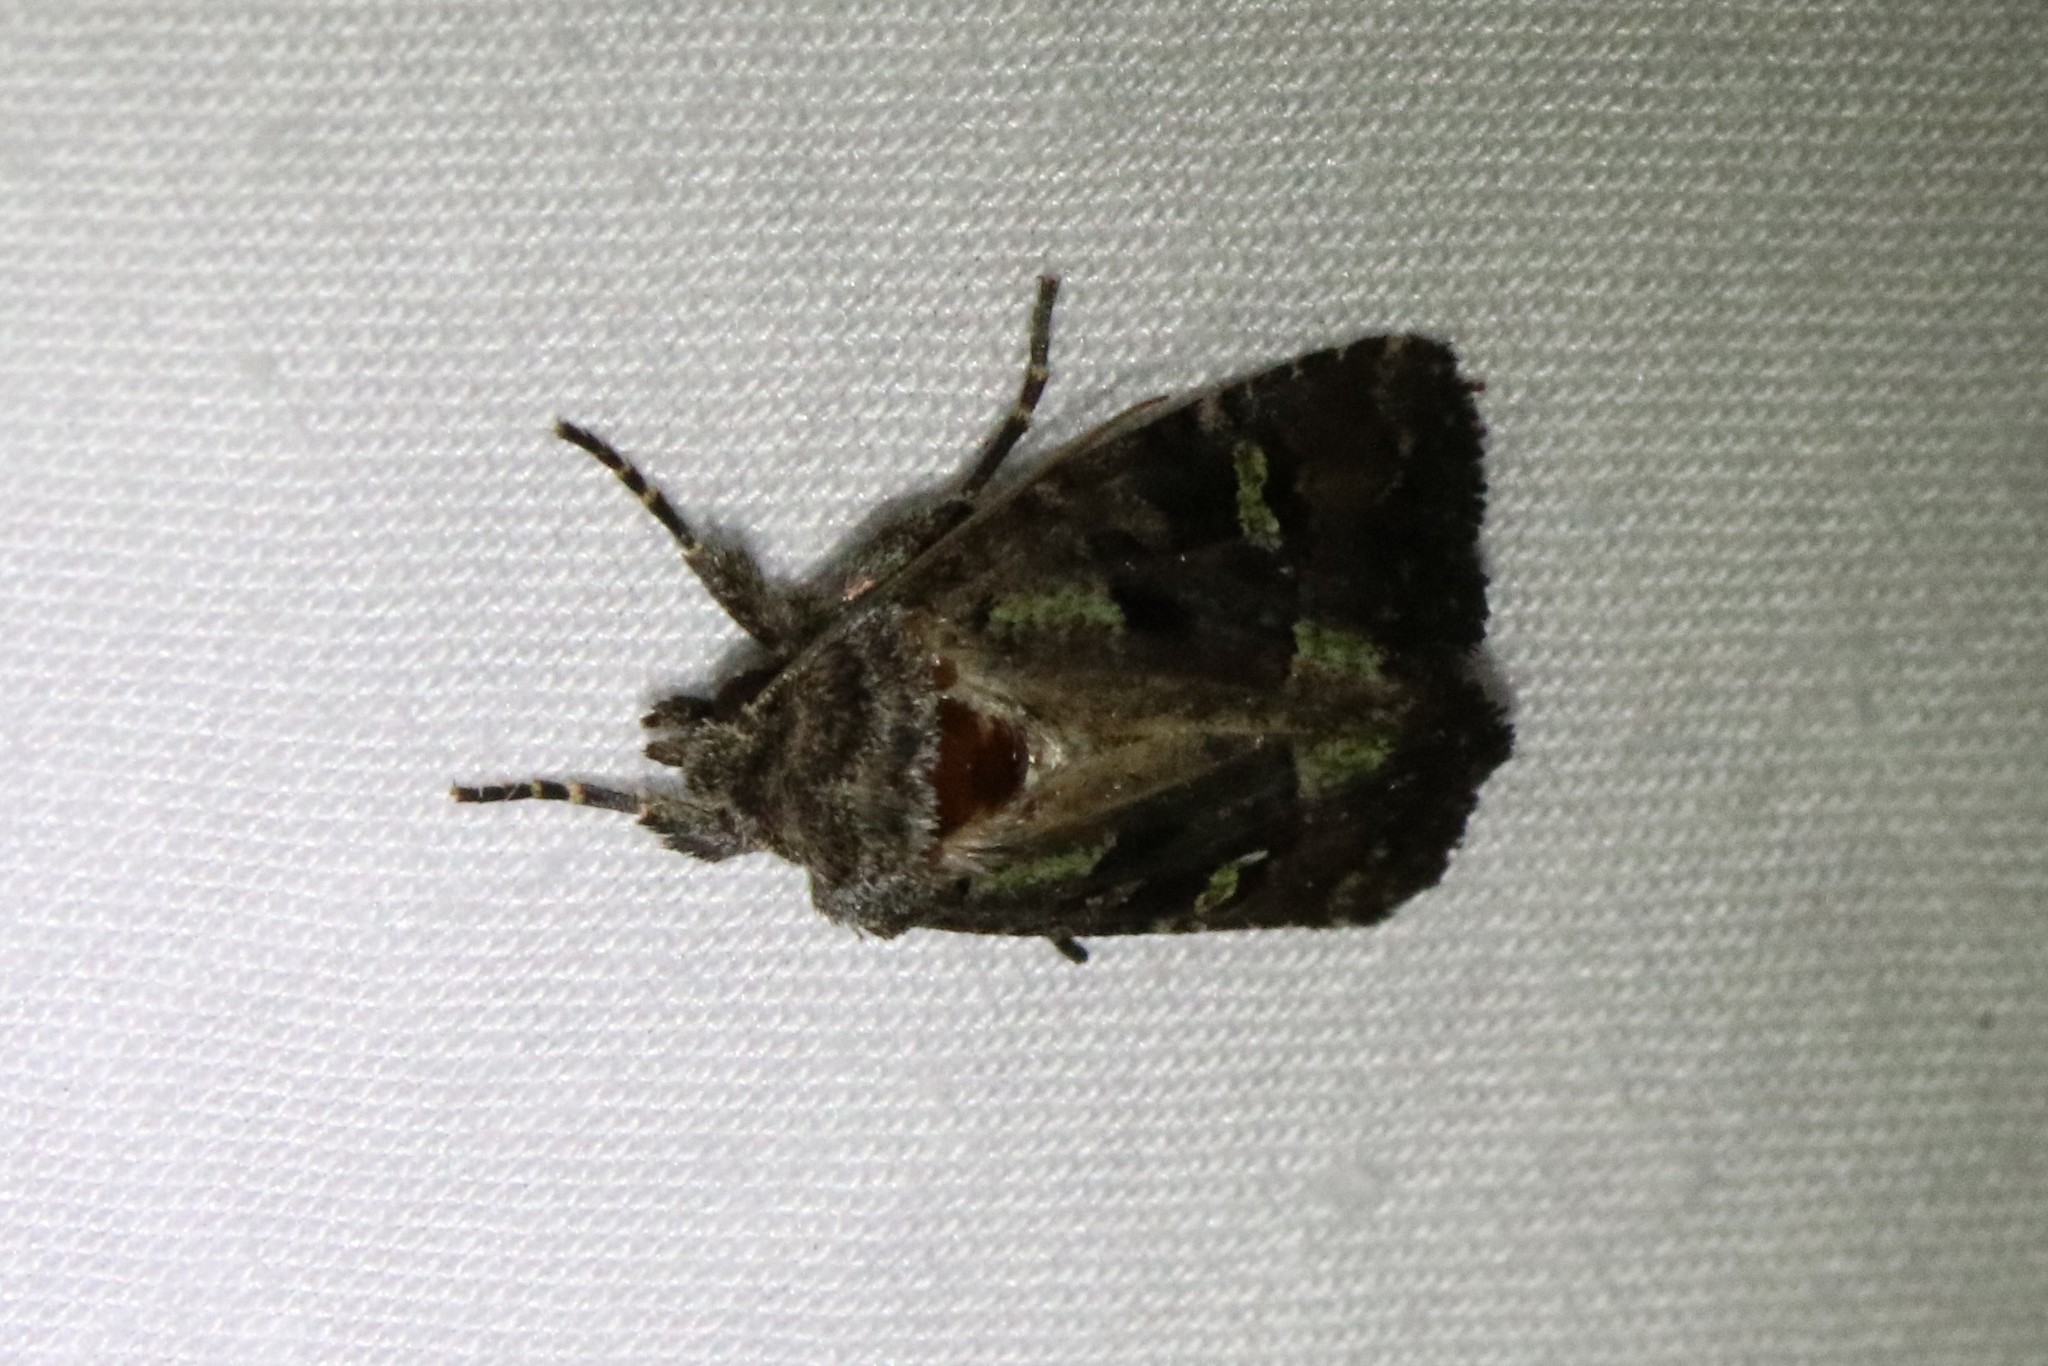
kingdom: Animalia
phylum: Arthropoda
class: Insecta
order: Lepidoptera
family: Noctuidae
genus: Lacinipolia
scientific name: Lacinipolia renigera
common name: Kidney-spotted minor
